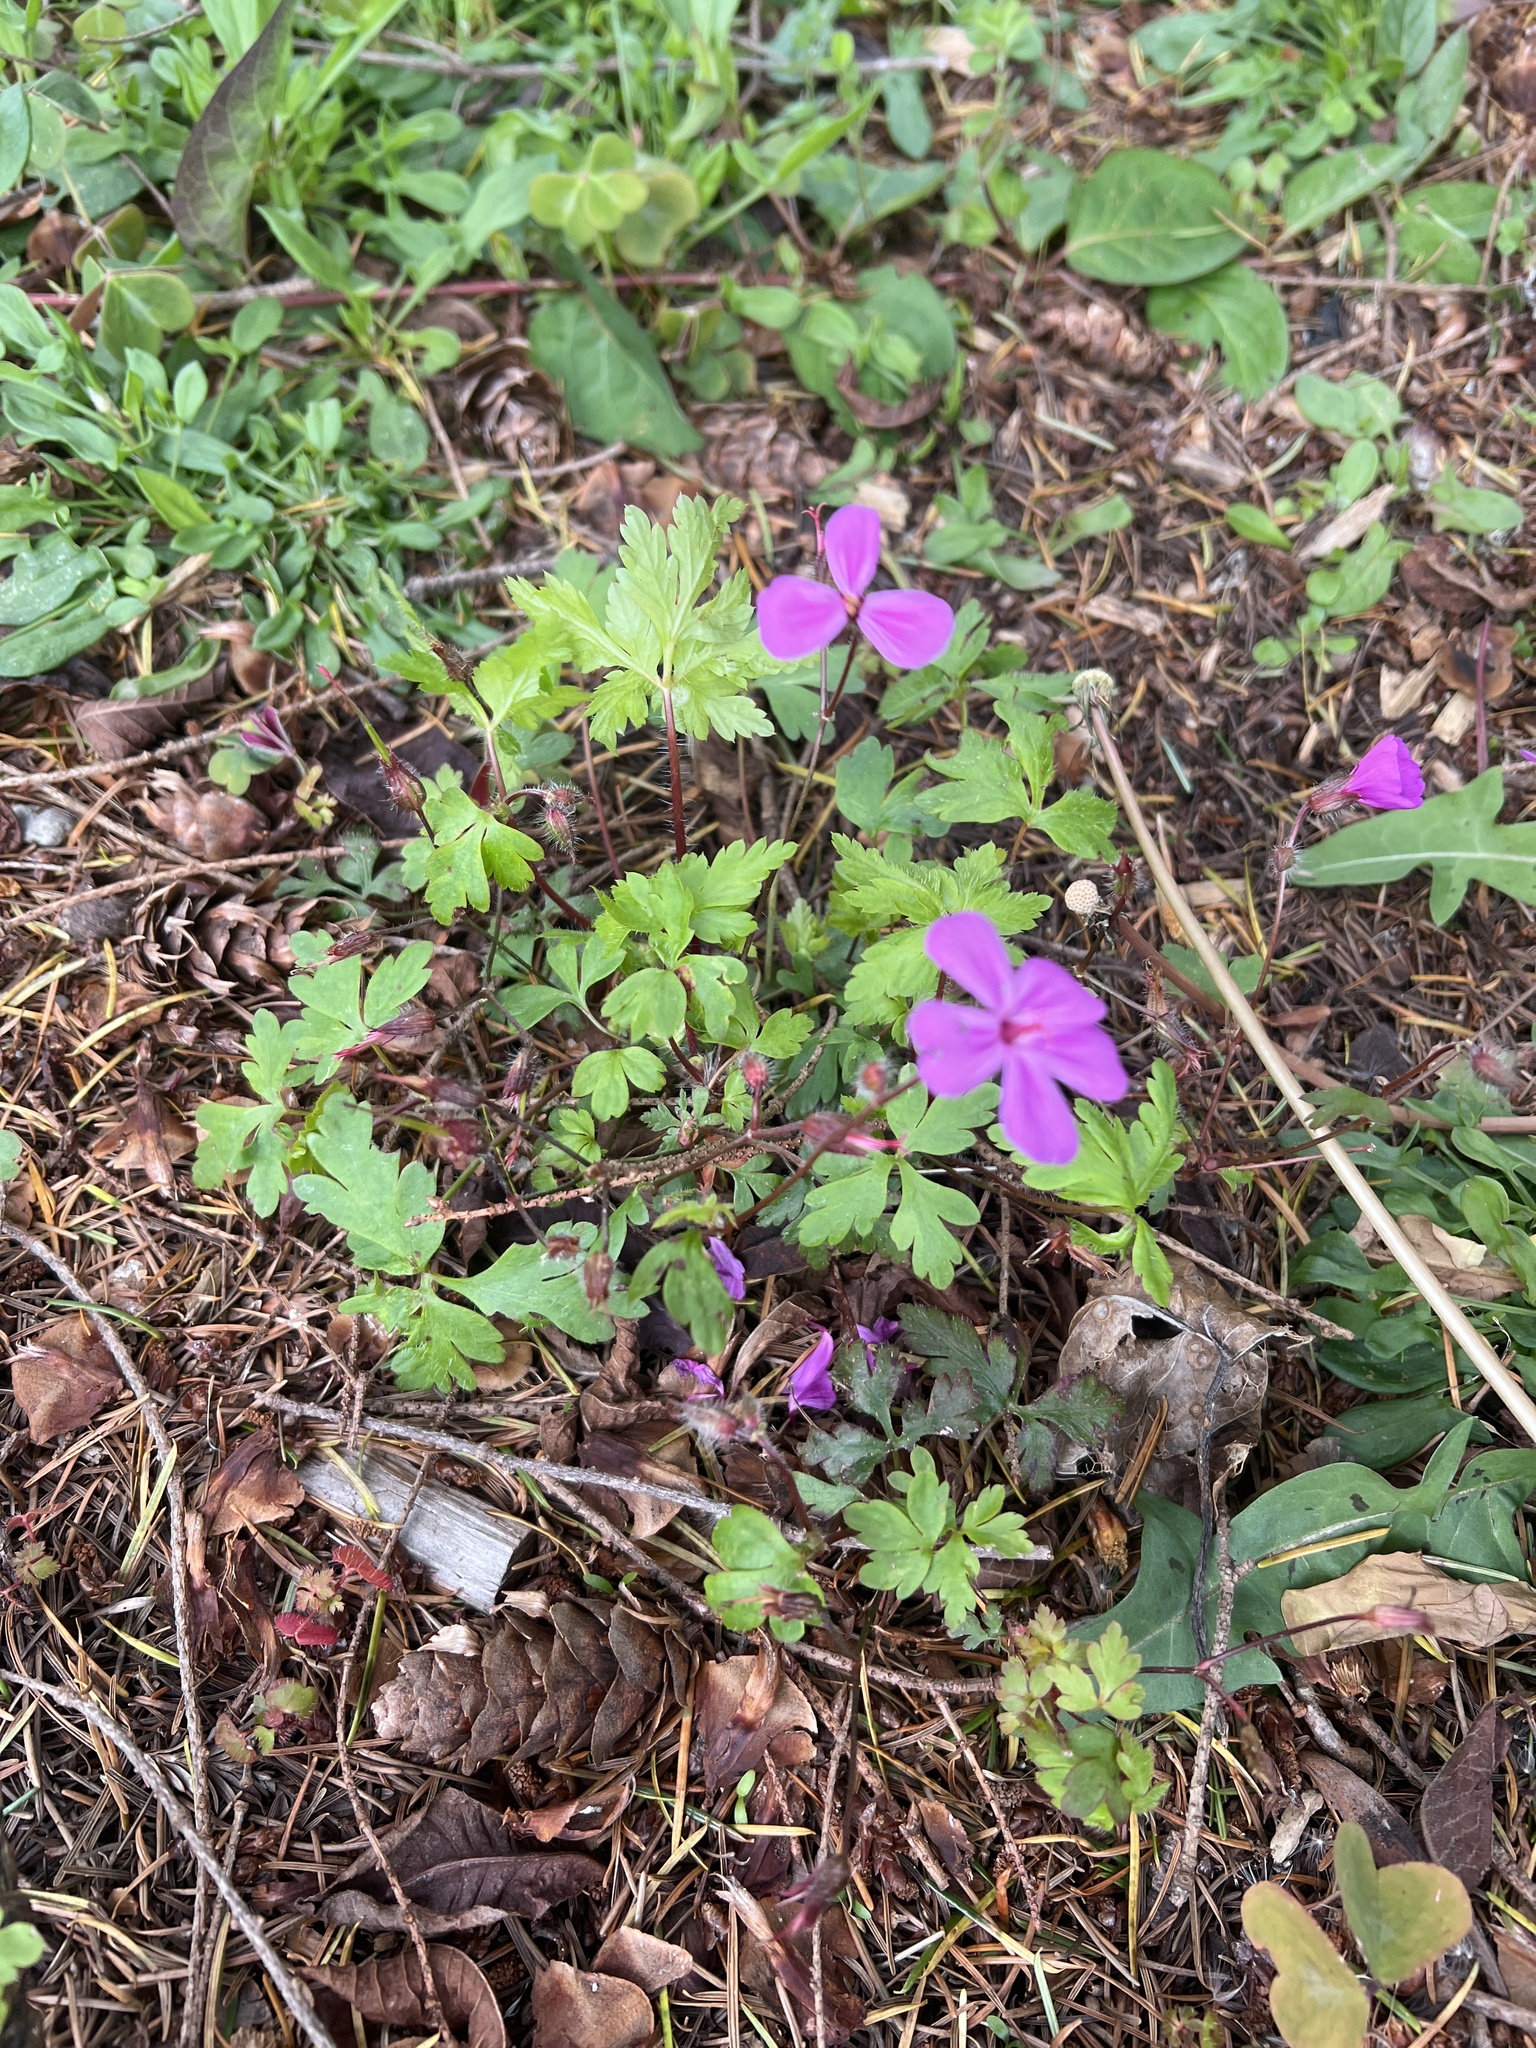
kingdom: Plantae
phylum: Tracheophyta
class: Magnoliopsida
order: Geraniales
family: Geraniaceae
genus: Geranium
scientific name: Geranium yeoi
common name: Greater herb robert
